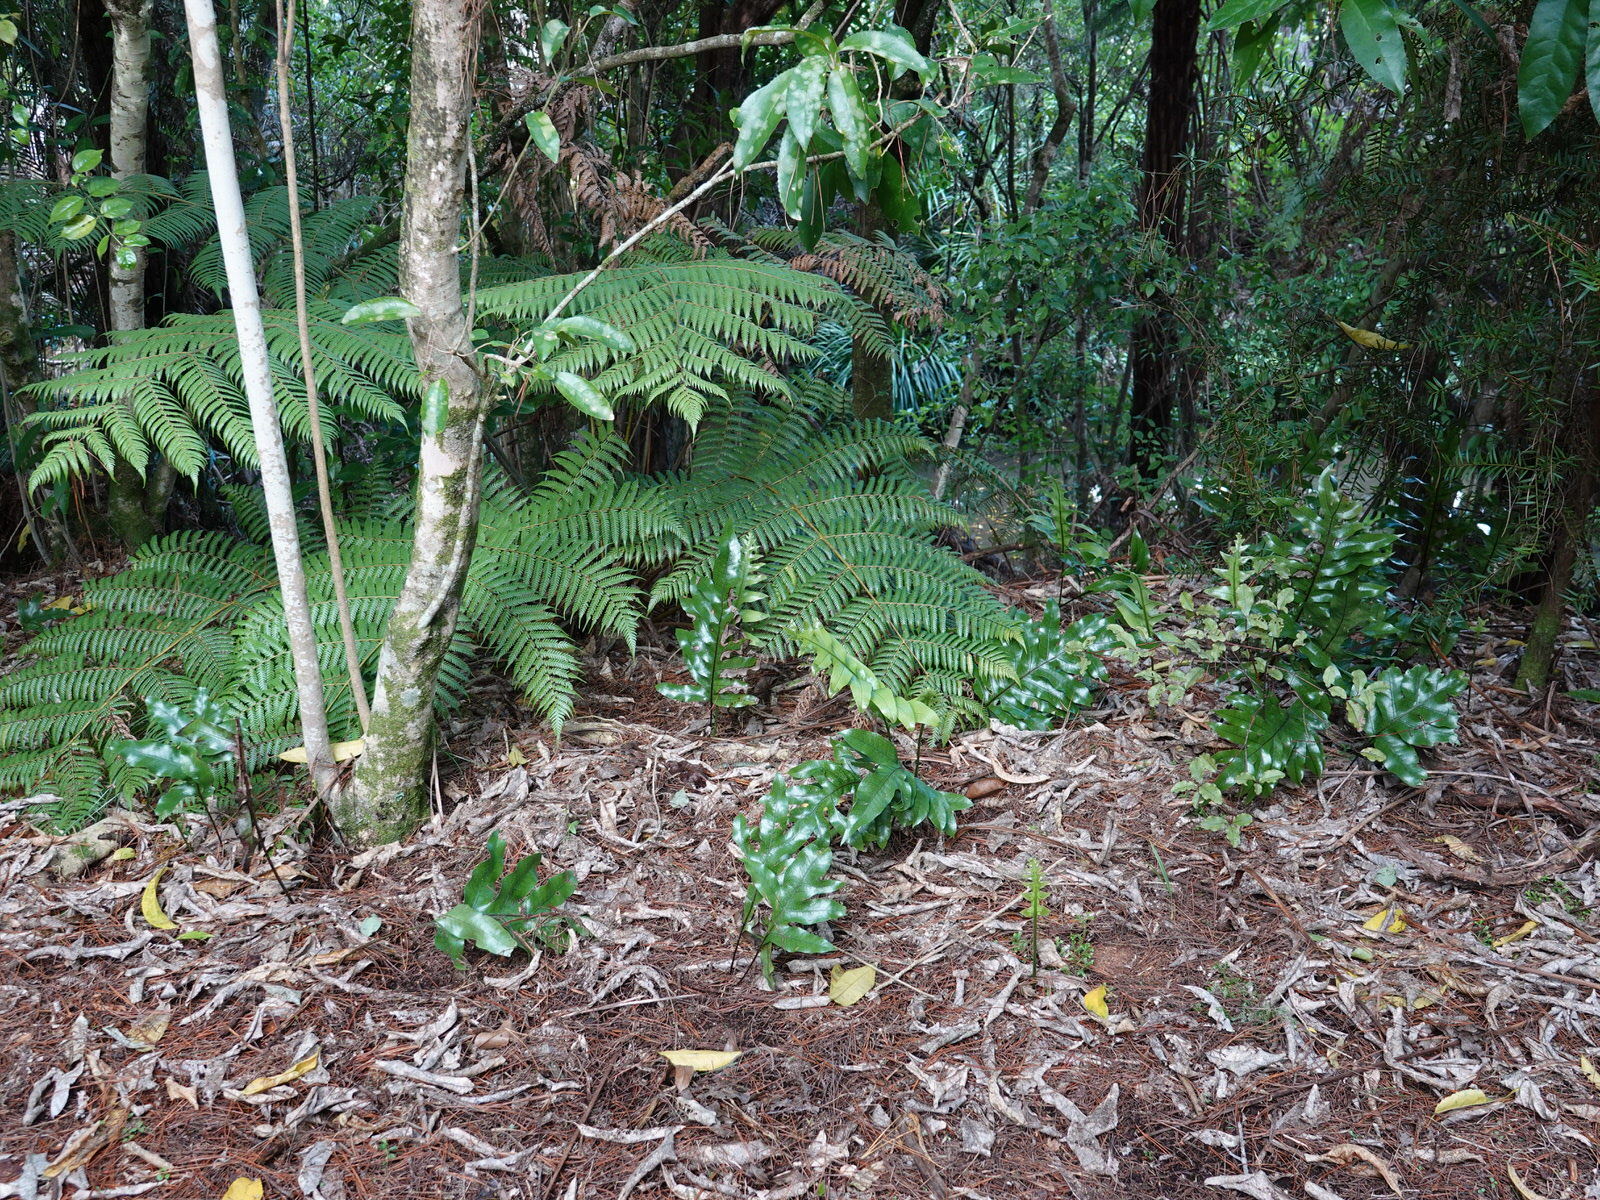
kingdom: Plantae
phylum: Tracheophyta
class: Polypodiopsida
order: Polypodiales
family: Polypodiaceae
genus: Lecanopteris
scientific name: Lecanopteris pustulata
